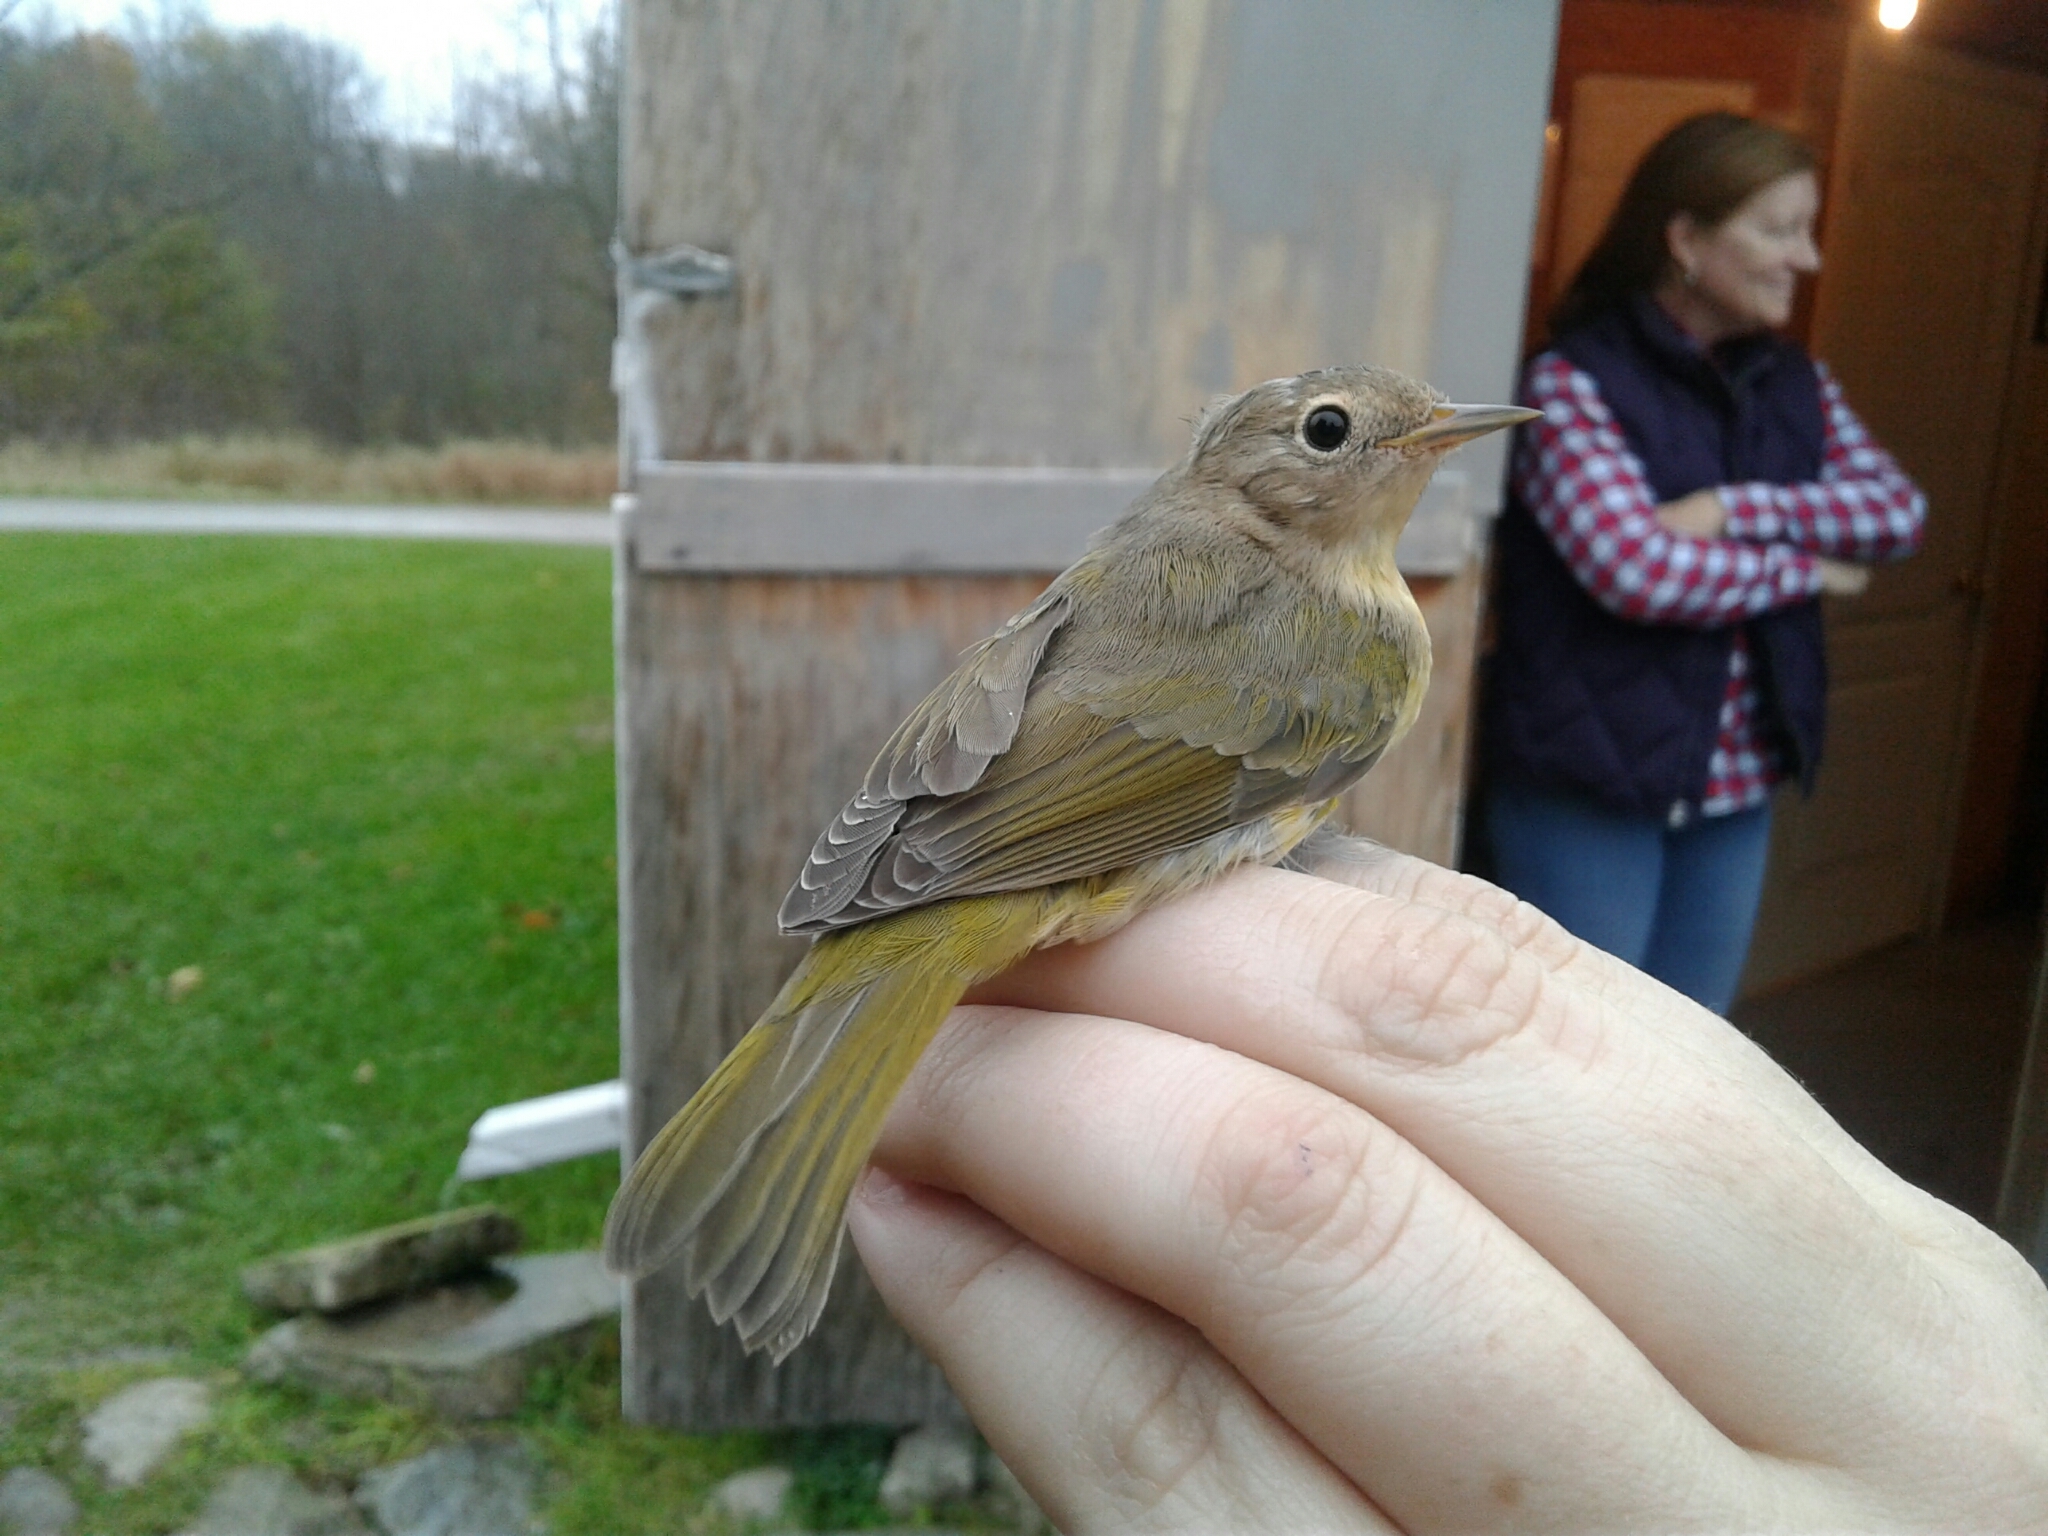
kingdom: Animalia
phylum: Chordata
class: Aves
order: Passeriformes
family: Parulidae
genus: Leiothlypis
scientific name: Leiothlypis ruficapilla
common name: Nashville warbler
